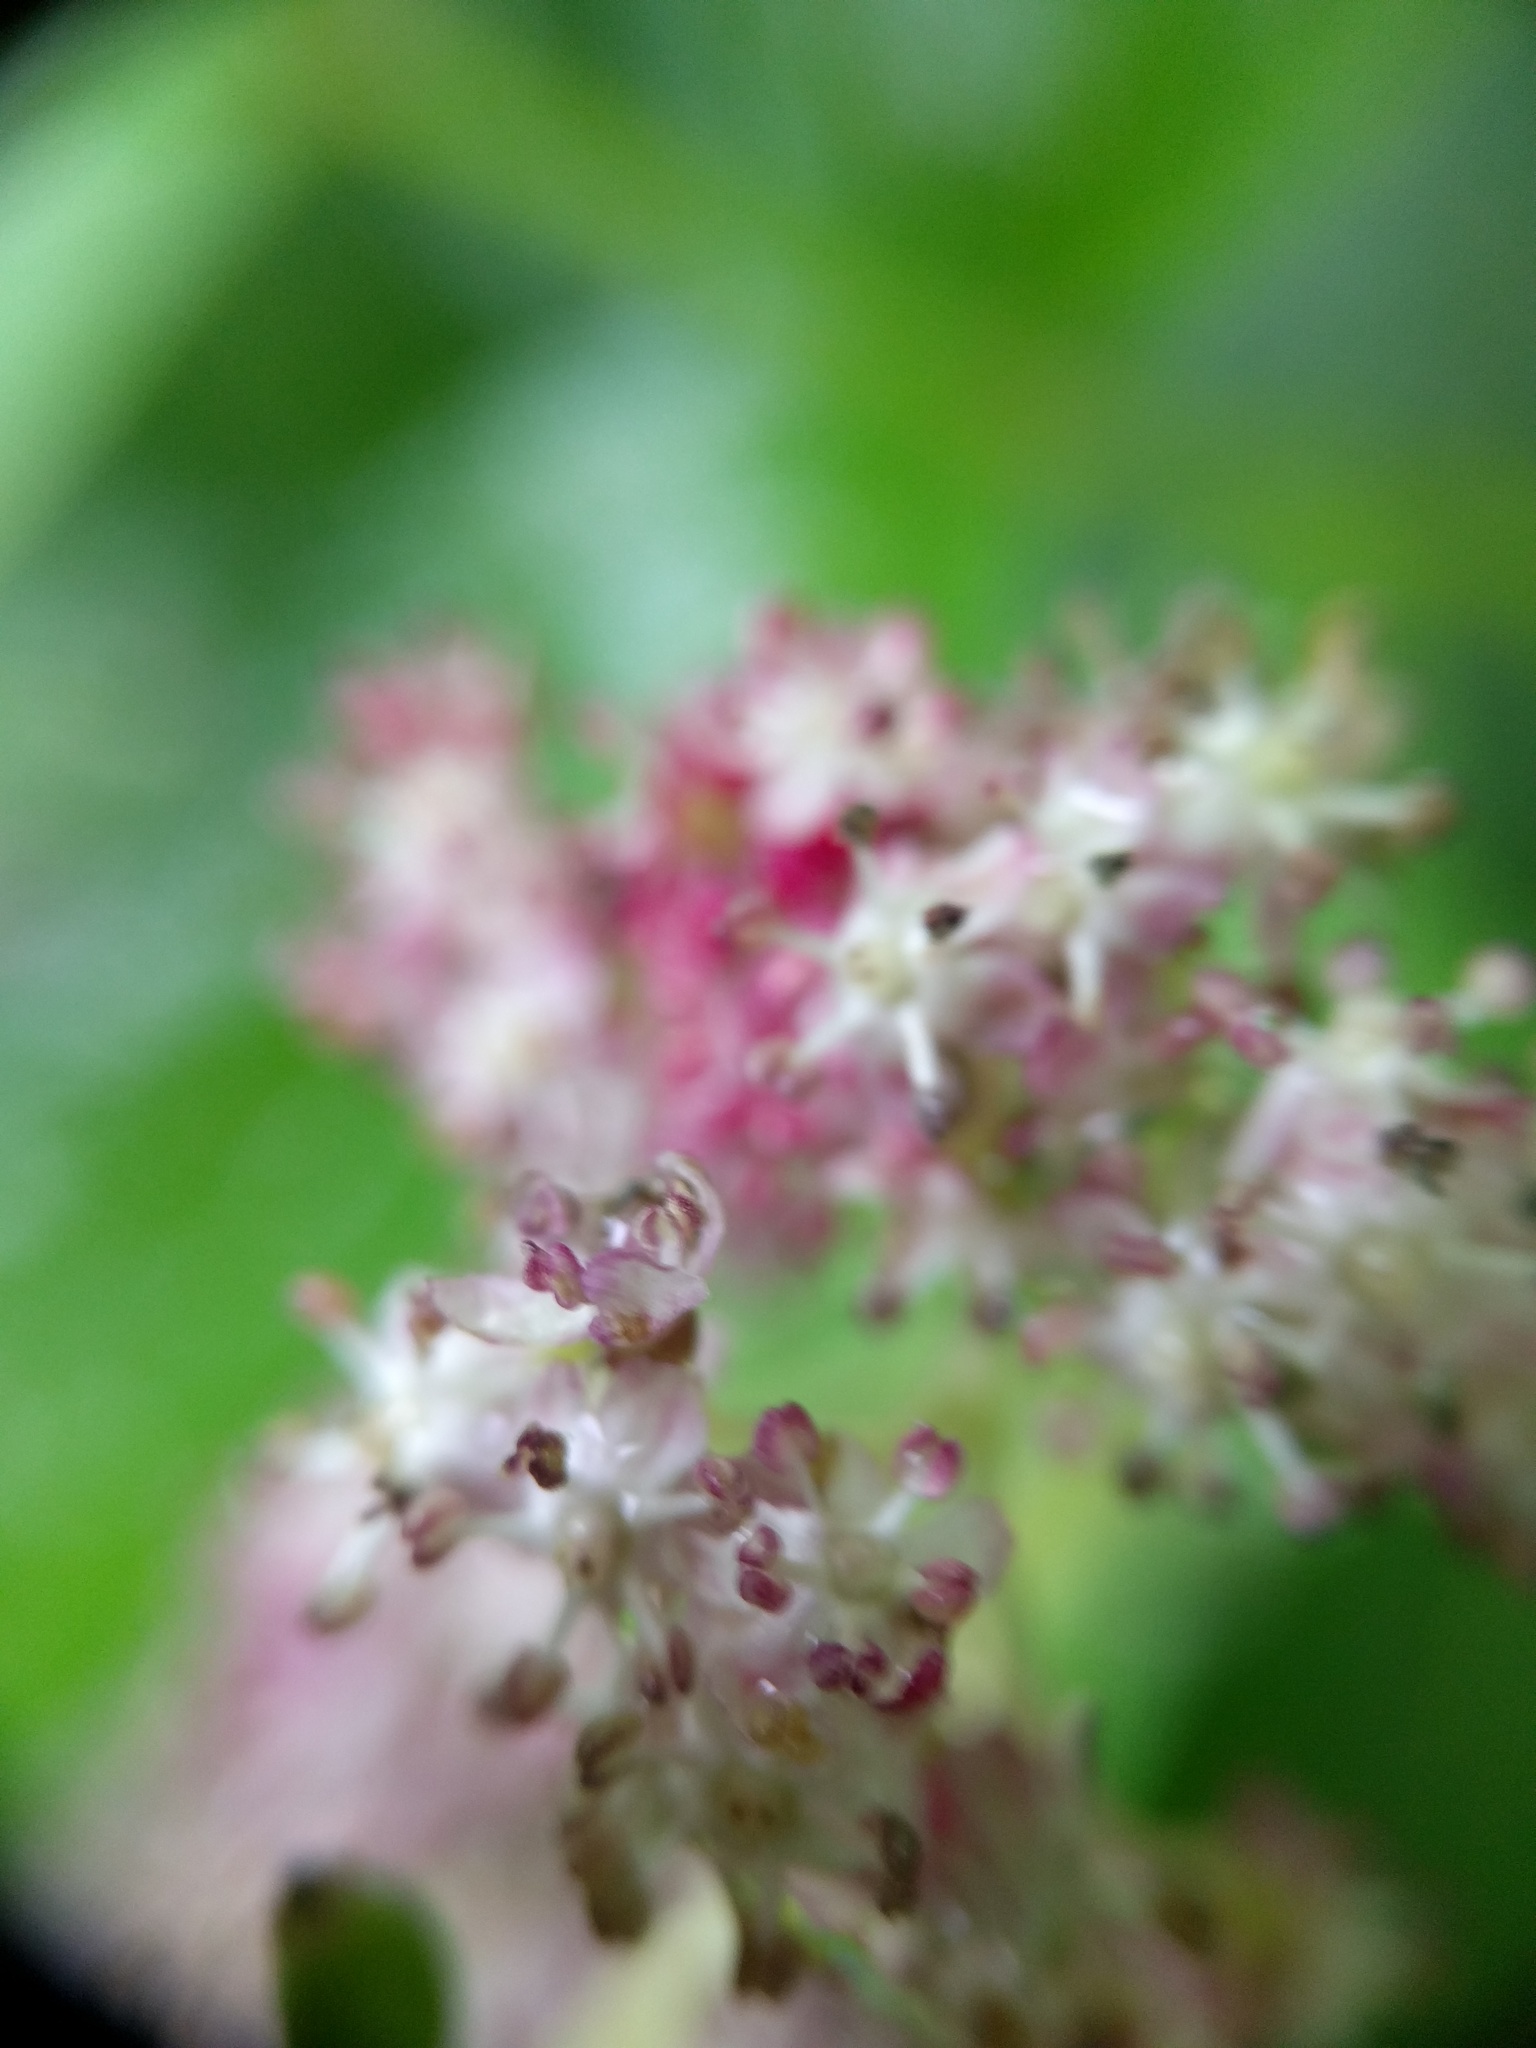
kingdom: Plantae
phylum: Tracheophyta
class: Magnoliopsida
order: Dipsacales
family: Viburnaceae
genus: Sambucus
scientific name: Sambucus racemosa
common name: Red-berried elder
